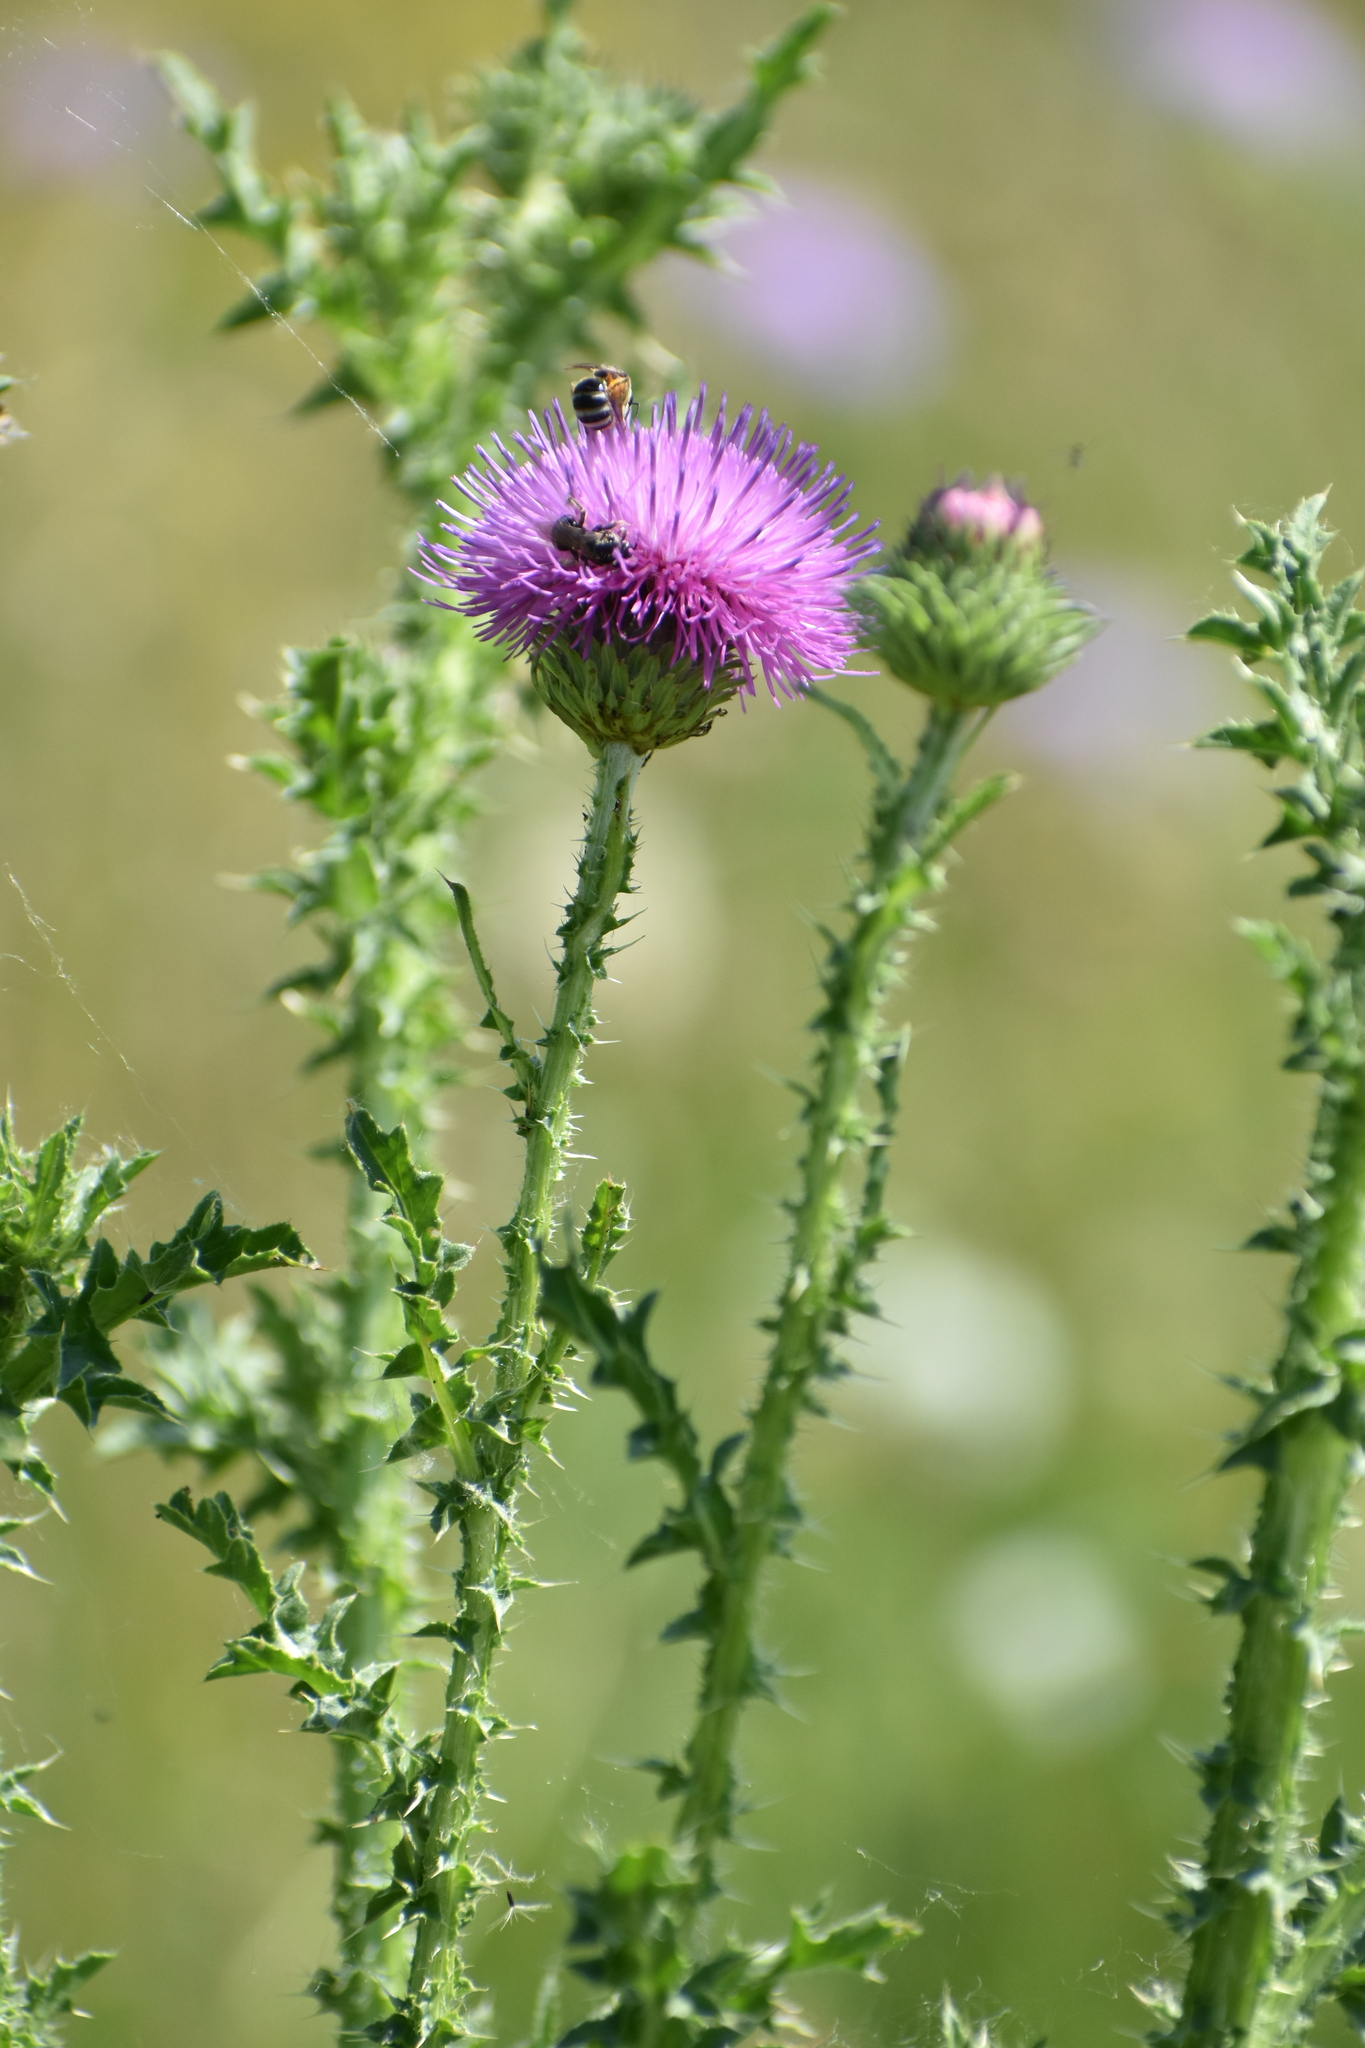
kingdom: Plantae
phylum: Tracheophyta
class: Magnoliopsida
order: Asterales
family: Asteraceae
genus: Carduus
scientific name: Carduus acanthoides
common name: Plumeless thistle
